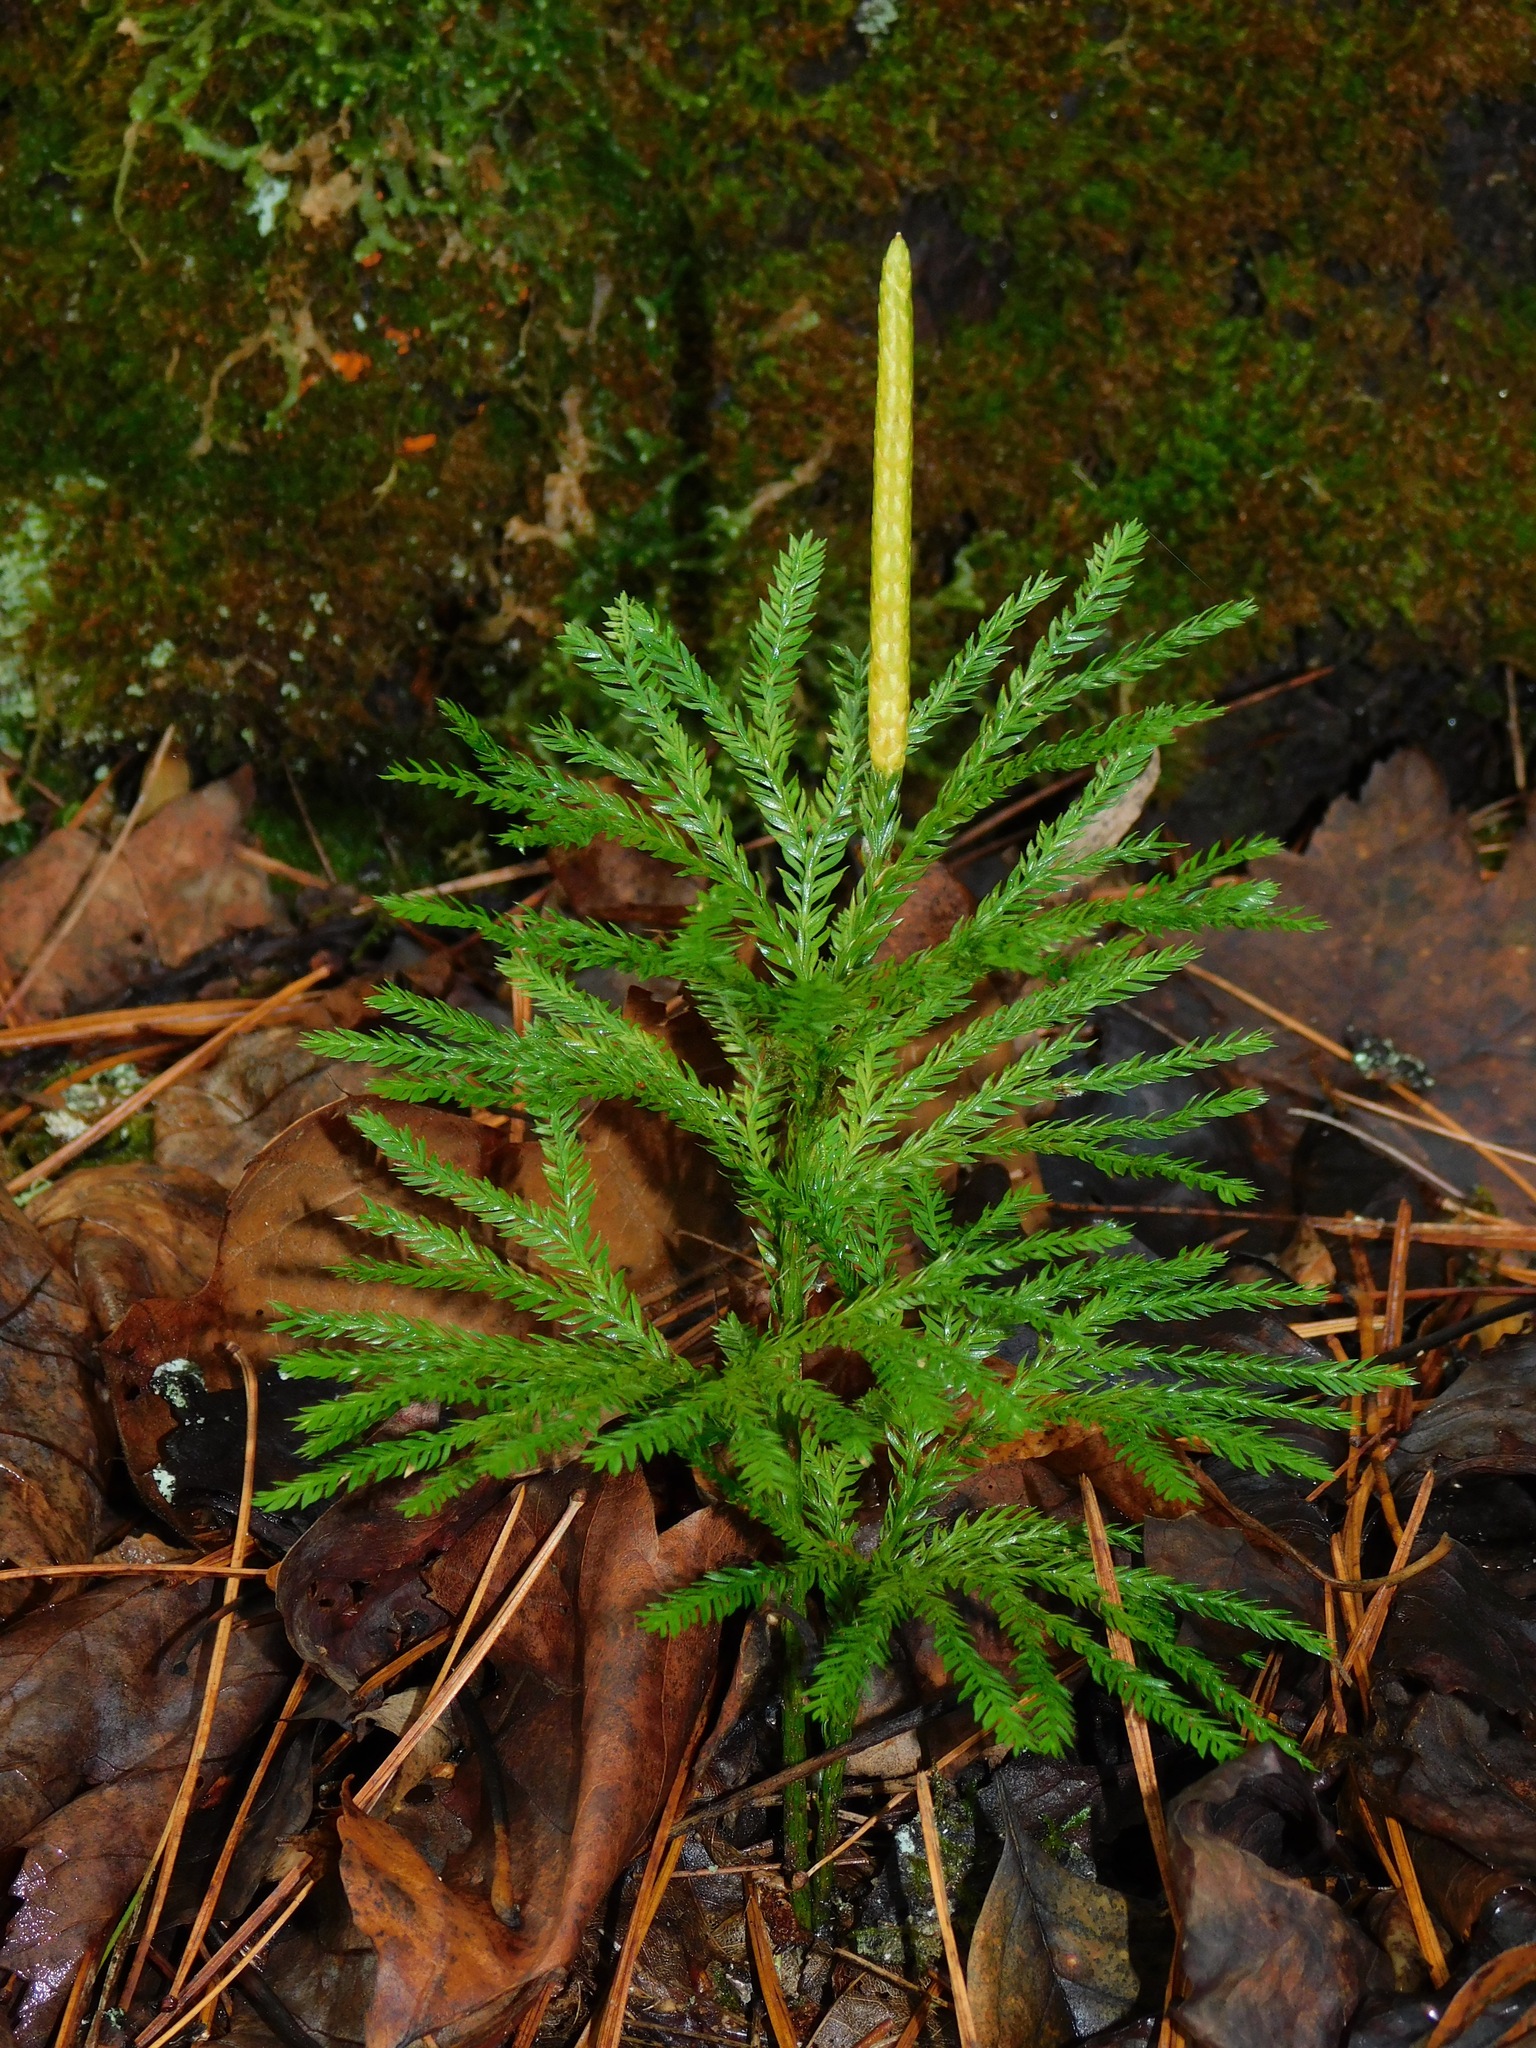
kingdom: Plantae
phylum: Tracheophyta
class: Lycopodiopsida
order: Lycopodiales
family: Lycopodiaceae
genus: Dendrolycopodium
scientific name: Dendrolycopodium obscurum
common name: Common ground-pine
